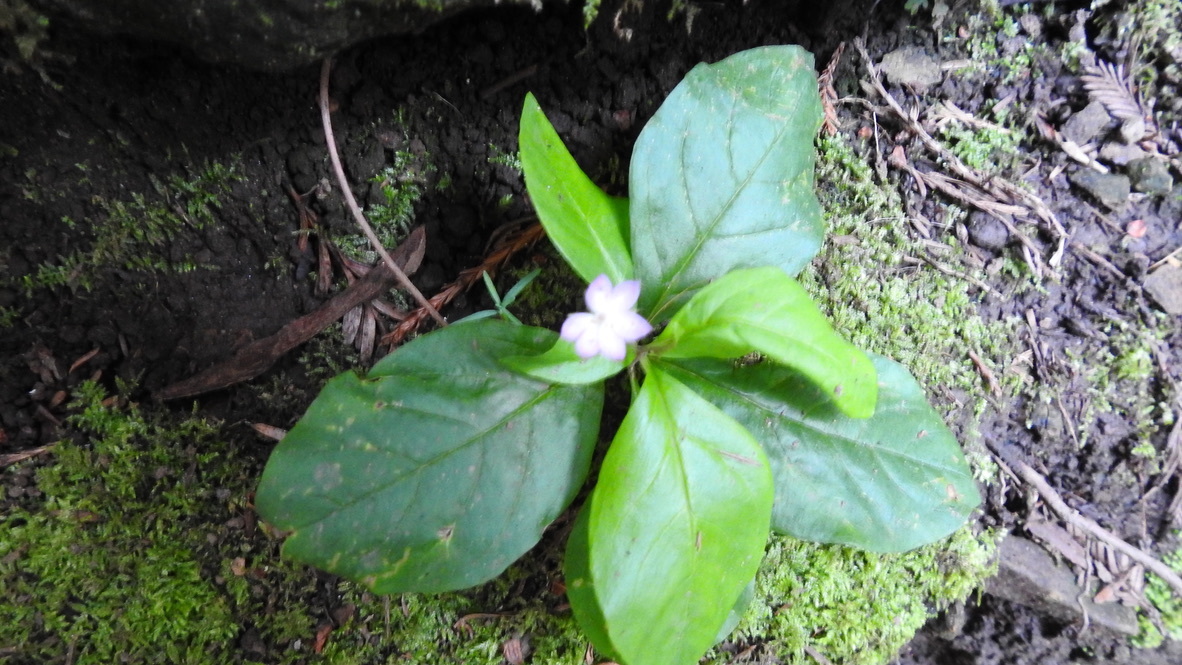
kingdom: Plantae
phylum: Tracheophyta
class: Magnoliopsida
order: Ericales
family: Primulaceae
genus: Lysimachia
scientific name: Lysimachia latifolia
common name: Pacific starflower
